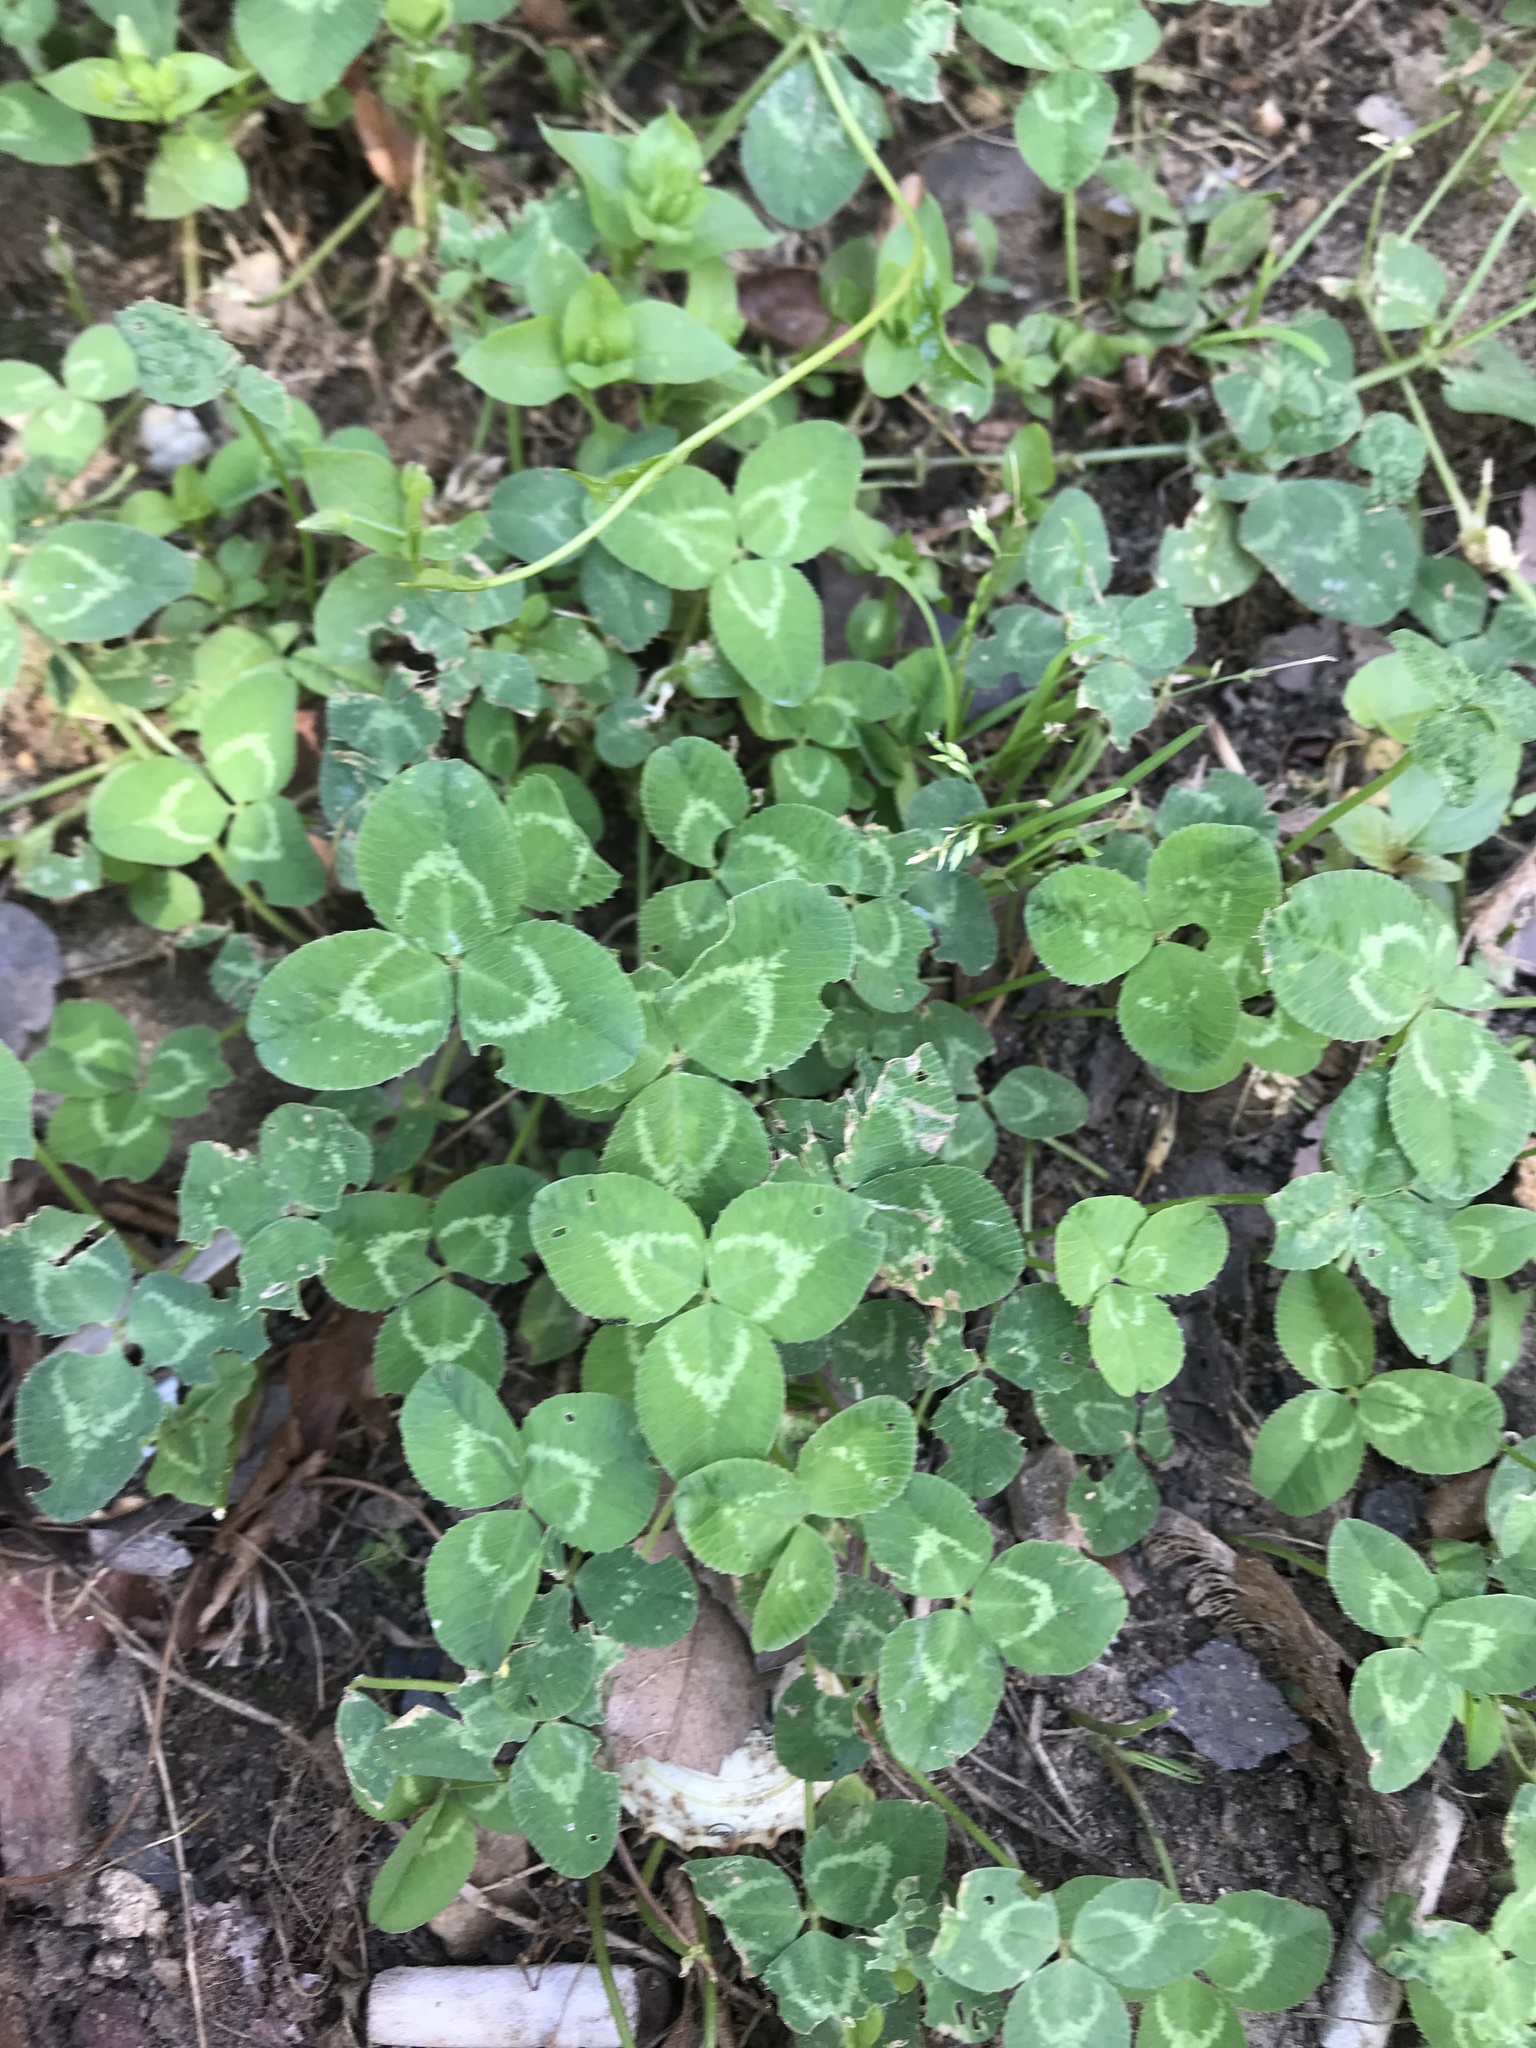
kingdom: Plantae
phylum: Tracheophyta
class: Magnoliopsida
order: Fabales
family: Fabaceae
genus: Trifolium
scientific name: Trifolium repens
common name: White clover
